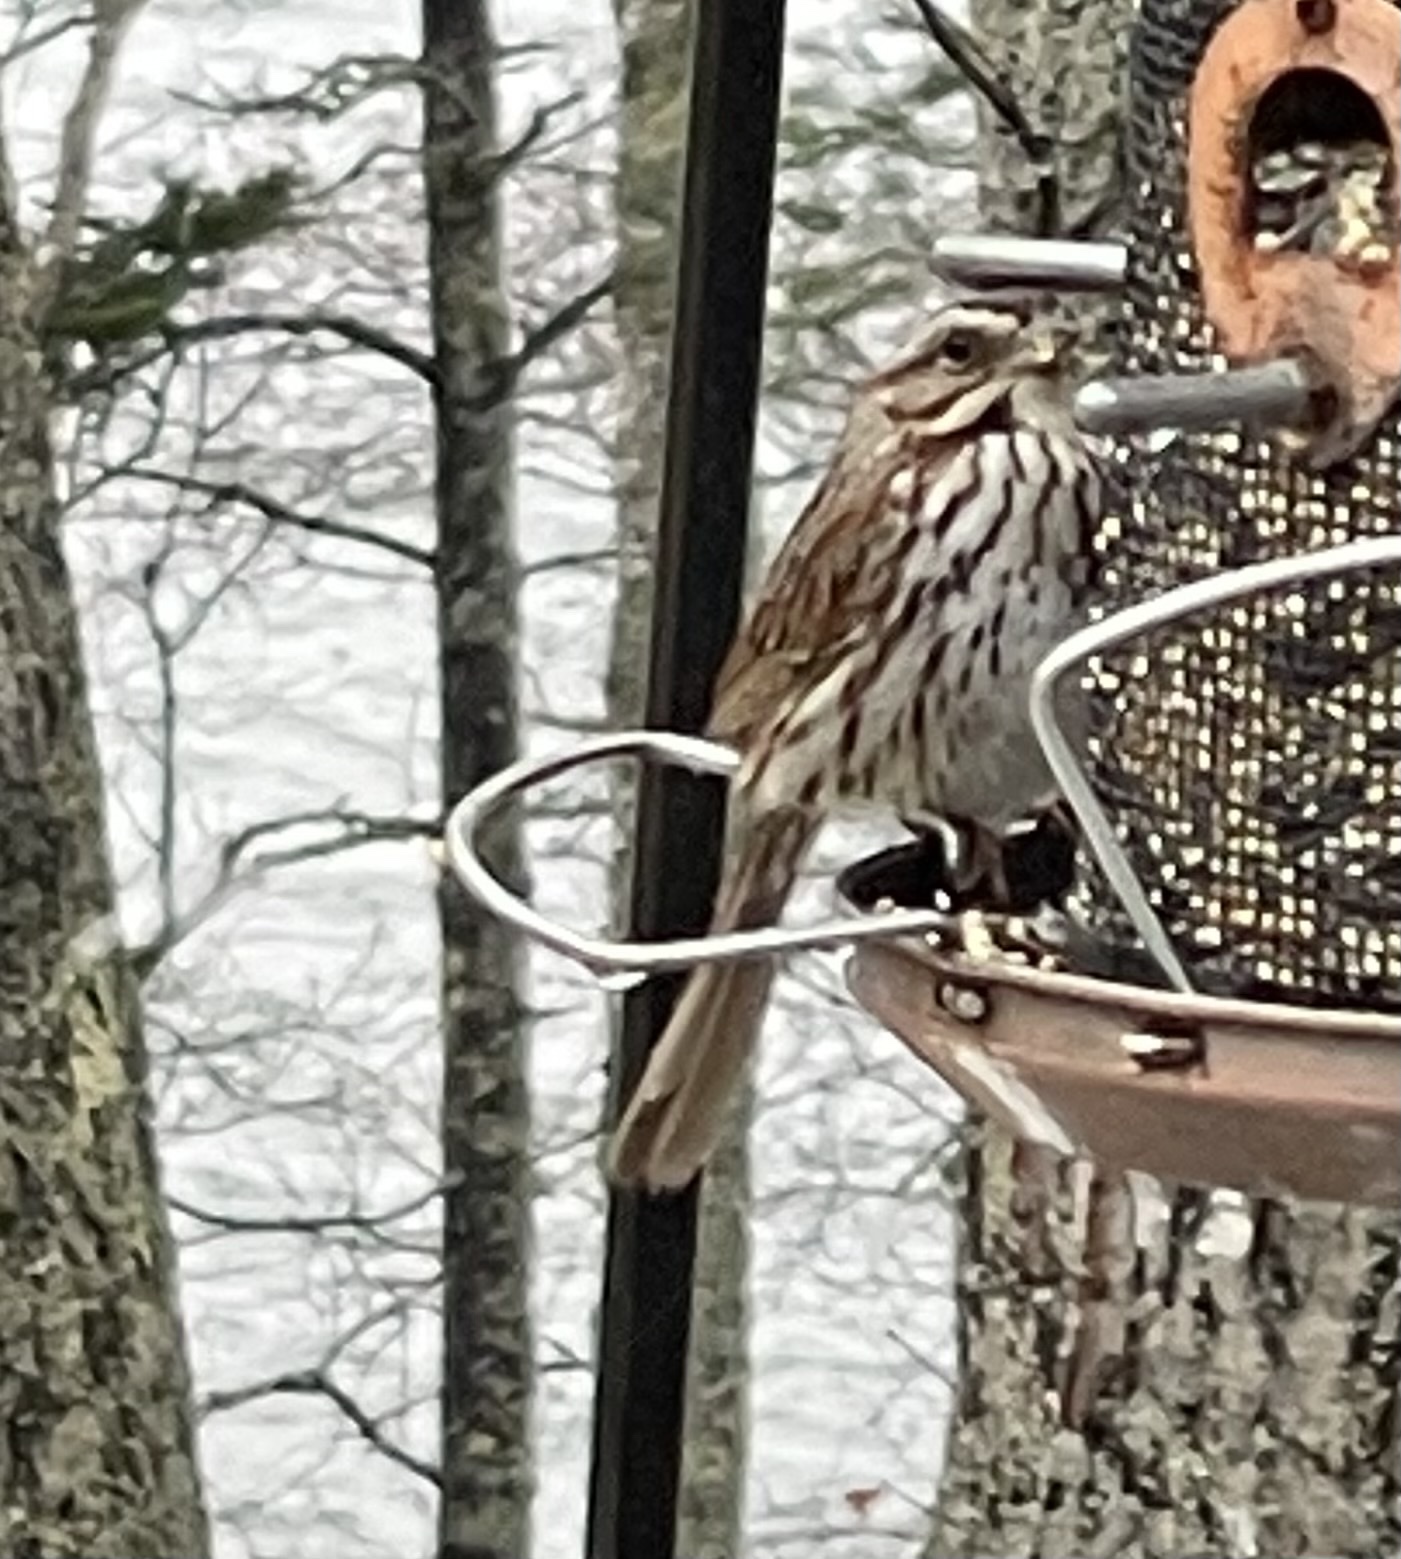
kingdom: Animalia
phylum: Chordata
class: Aves
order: Passeriformes
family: Passerellidae
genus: Melospiza
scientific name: Melospiza melodia
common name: Song sparrow
